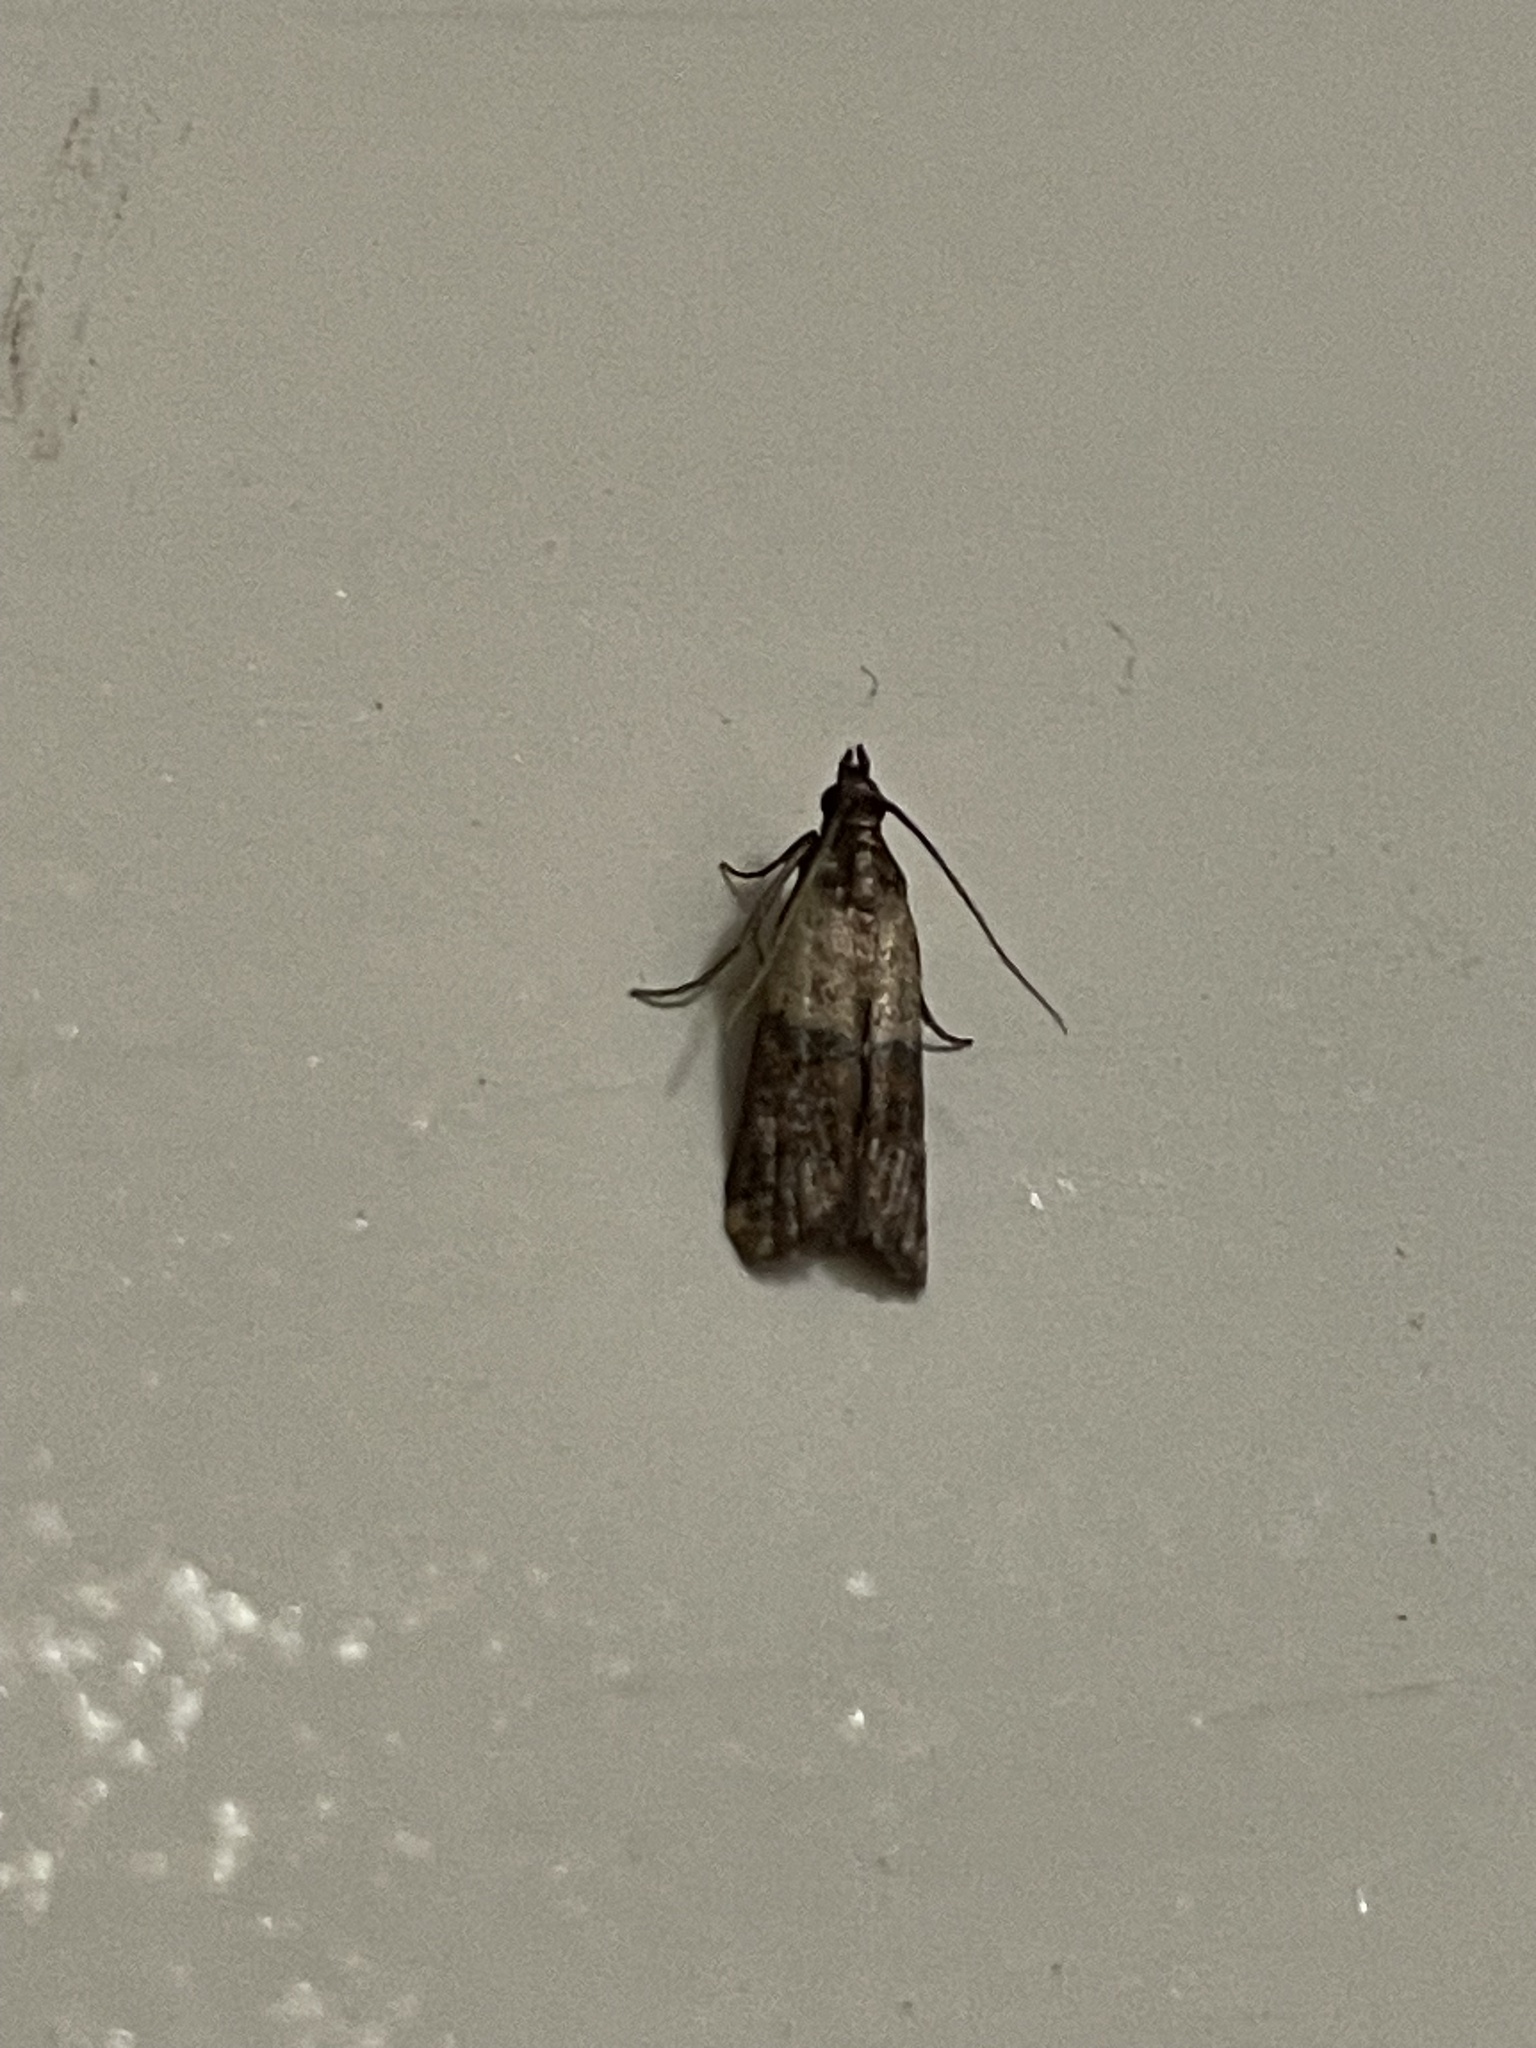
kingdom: Animalia
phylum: Arthropoda
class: Insecta
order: Lepidoptera
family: Pyralidae
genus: Plodia
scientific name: Plodia interpunctella
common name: Indian meal moth
